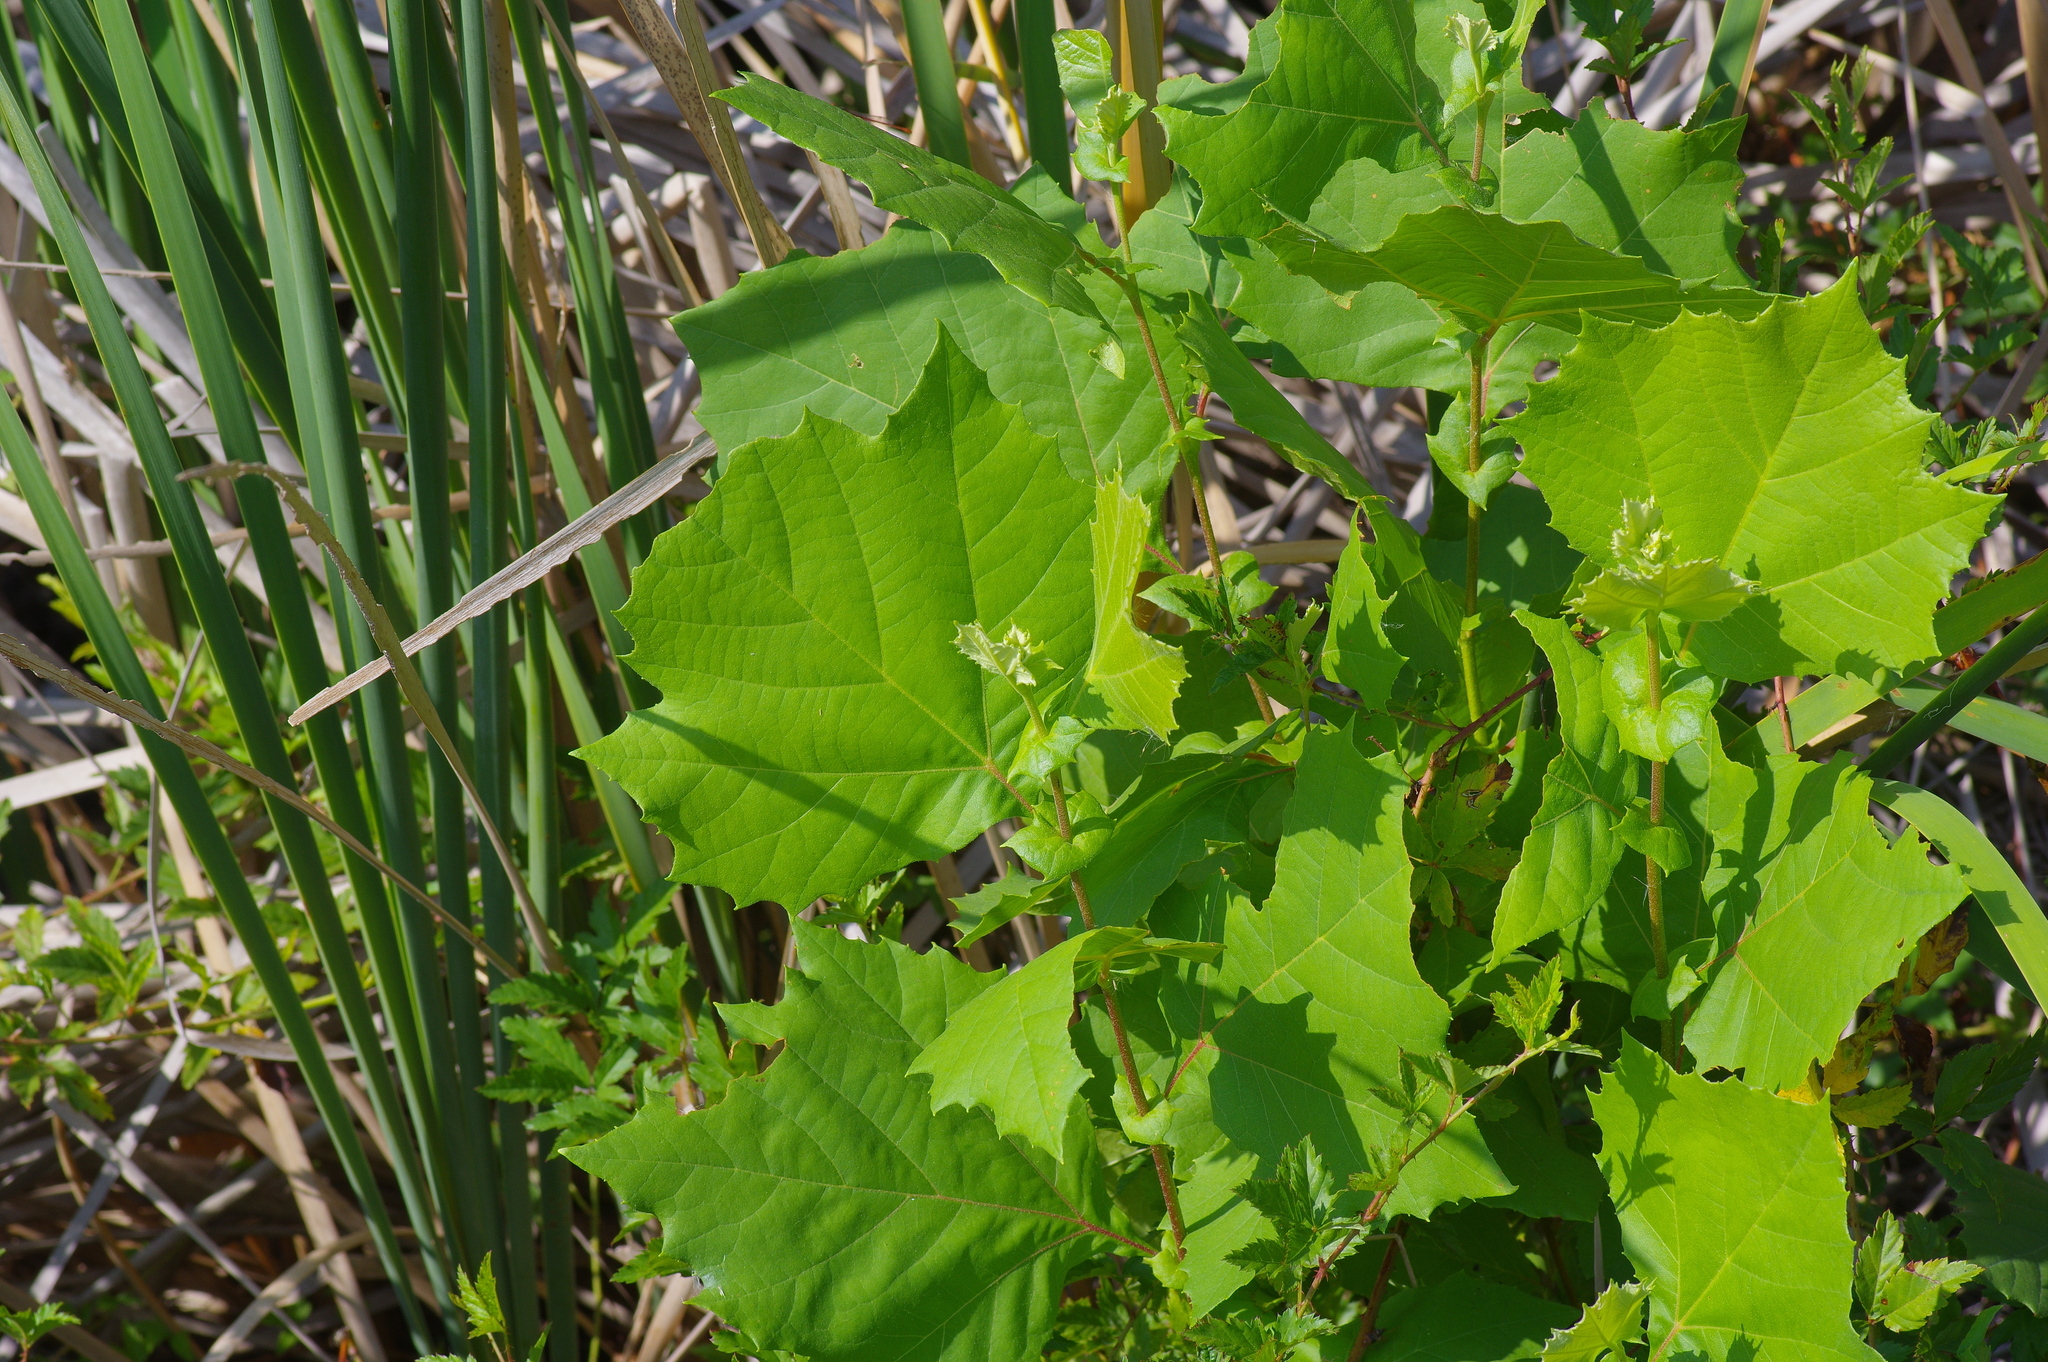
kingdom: Plantae
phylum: Tracheophyta
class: Magnoliopsida
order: Proteales
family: Platanaceae
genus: Platanus
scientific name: Platanus occidentalis
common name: American sycamore
